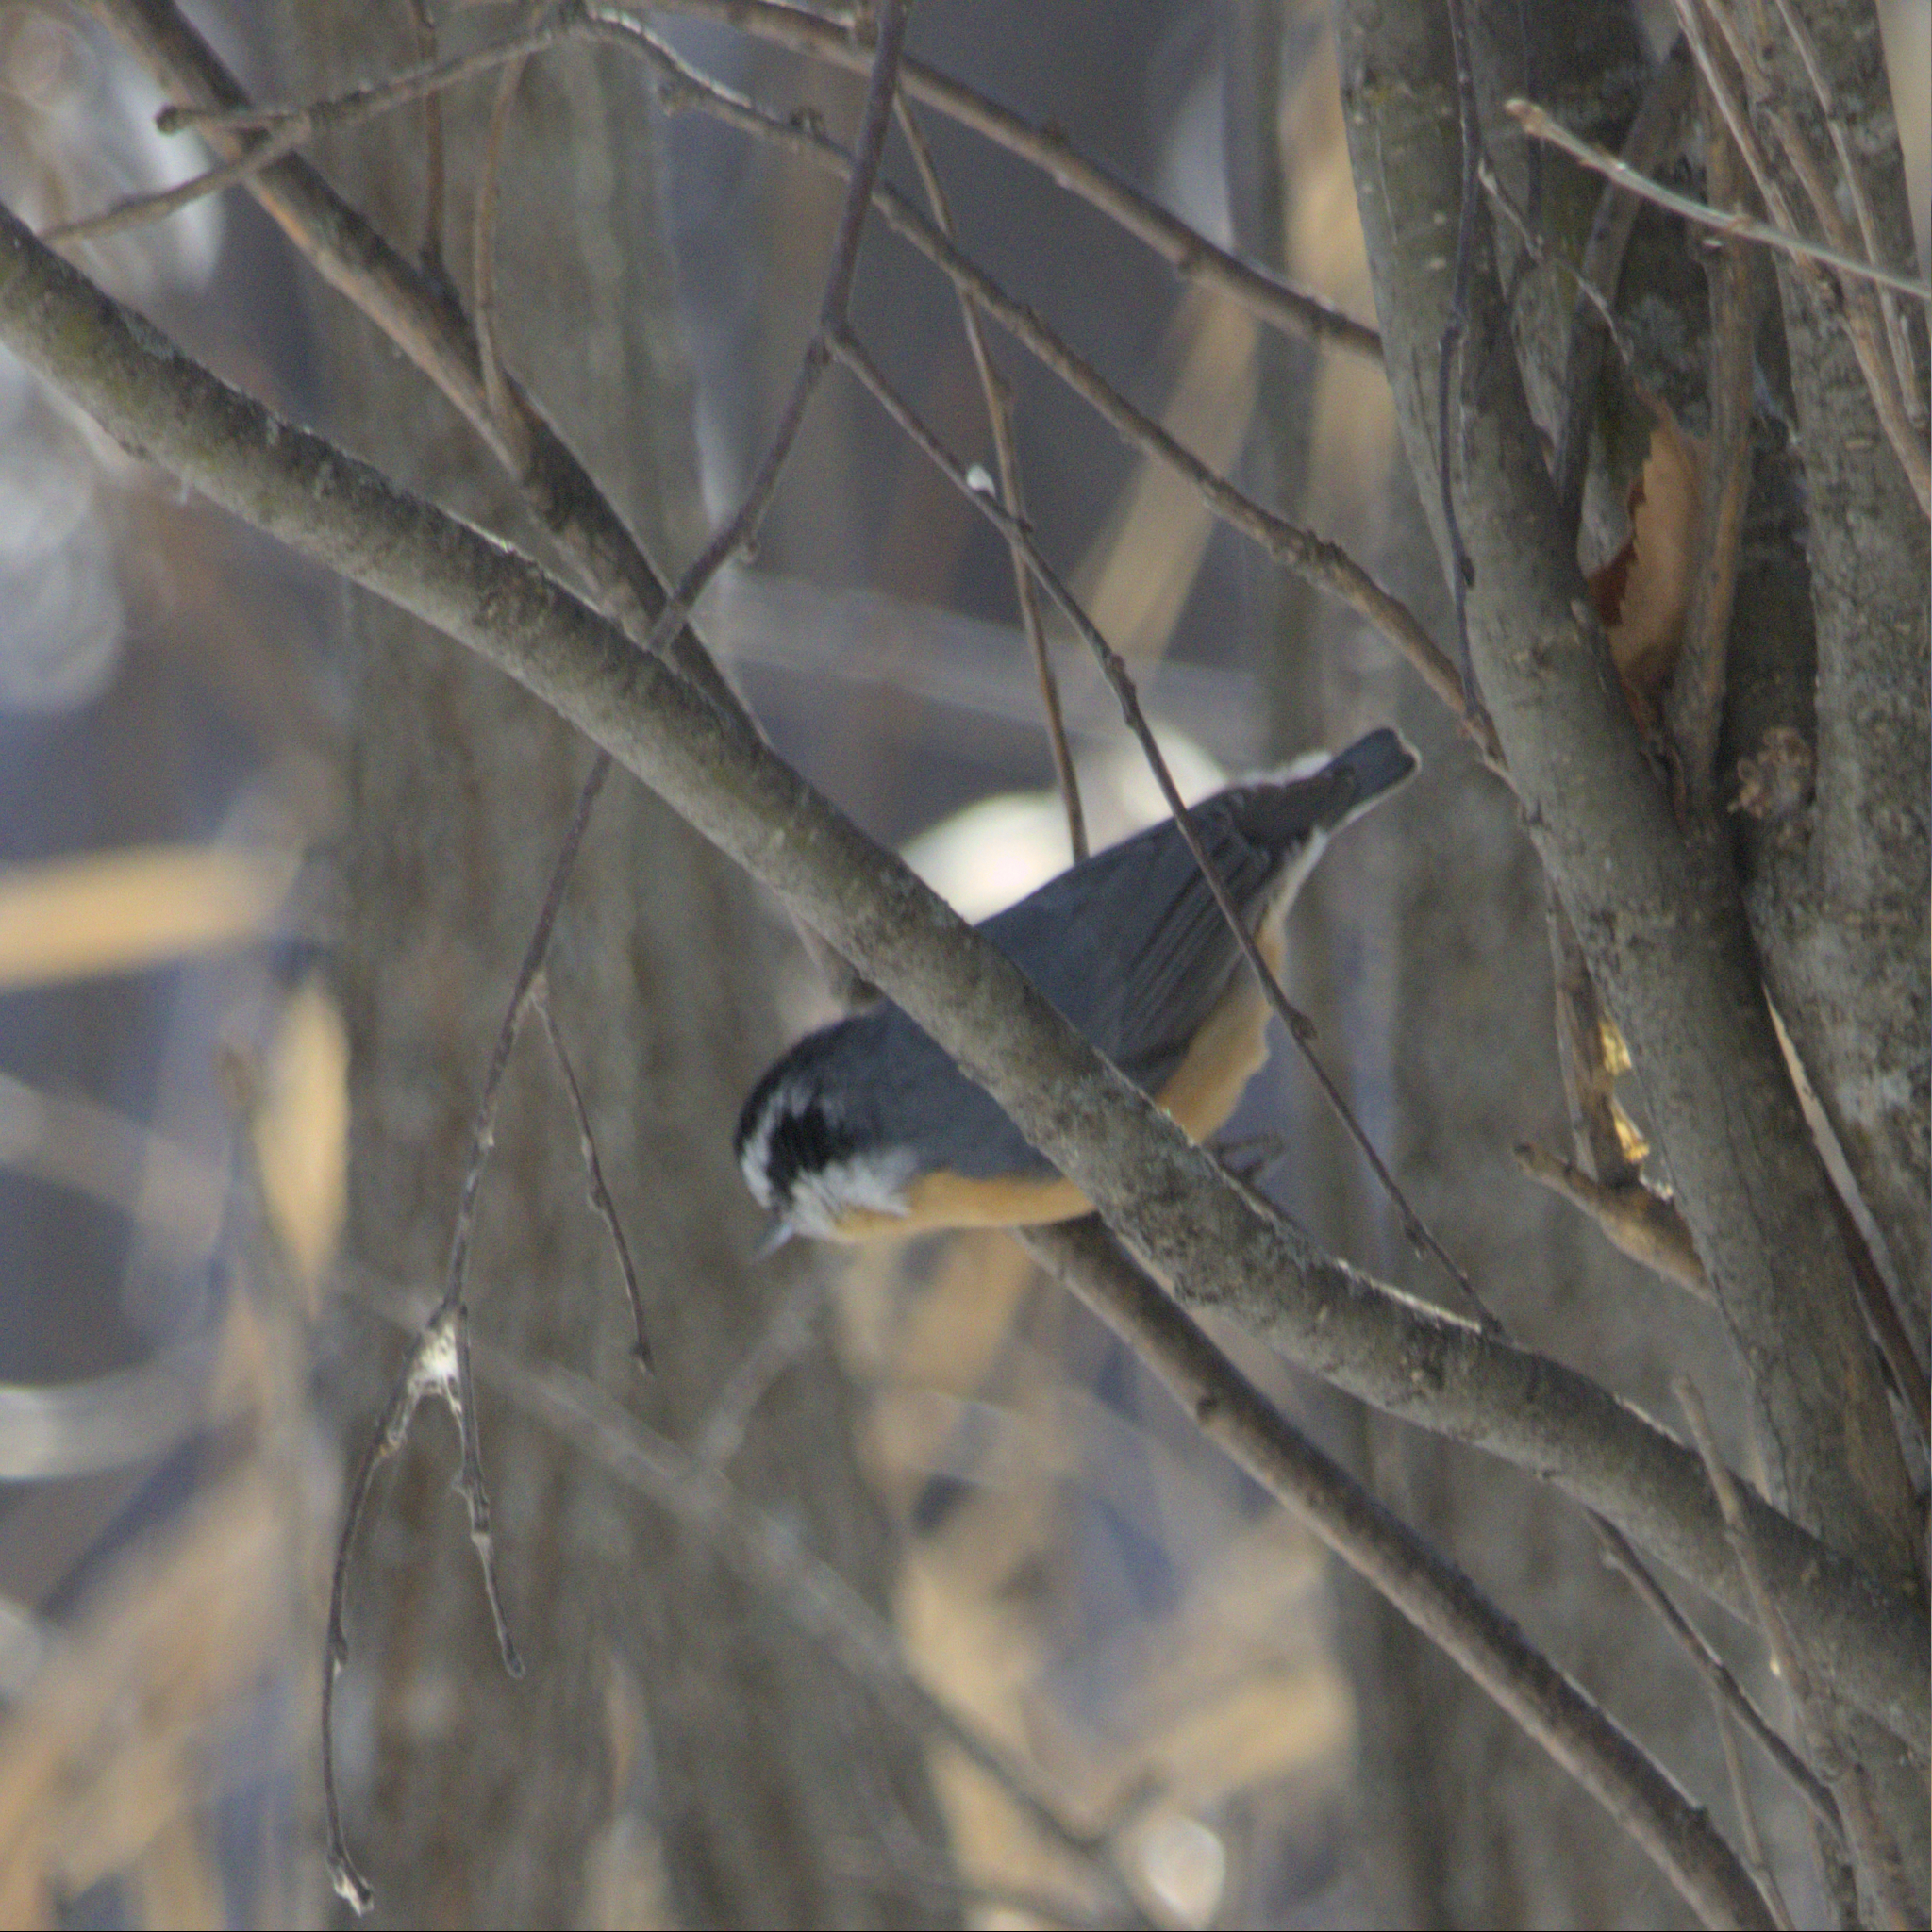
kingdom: Animalia
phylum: Chordata
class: Aves
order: Passeriformes
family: Sittidae
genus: Sitta
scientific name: Sitta canadensis
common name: Red-breasted nuthatch
